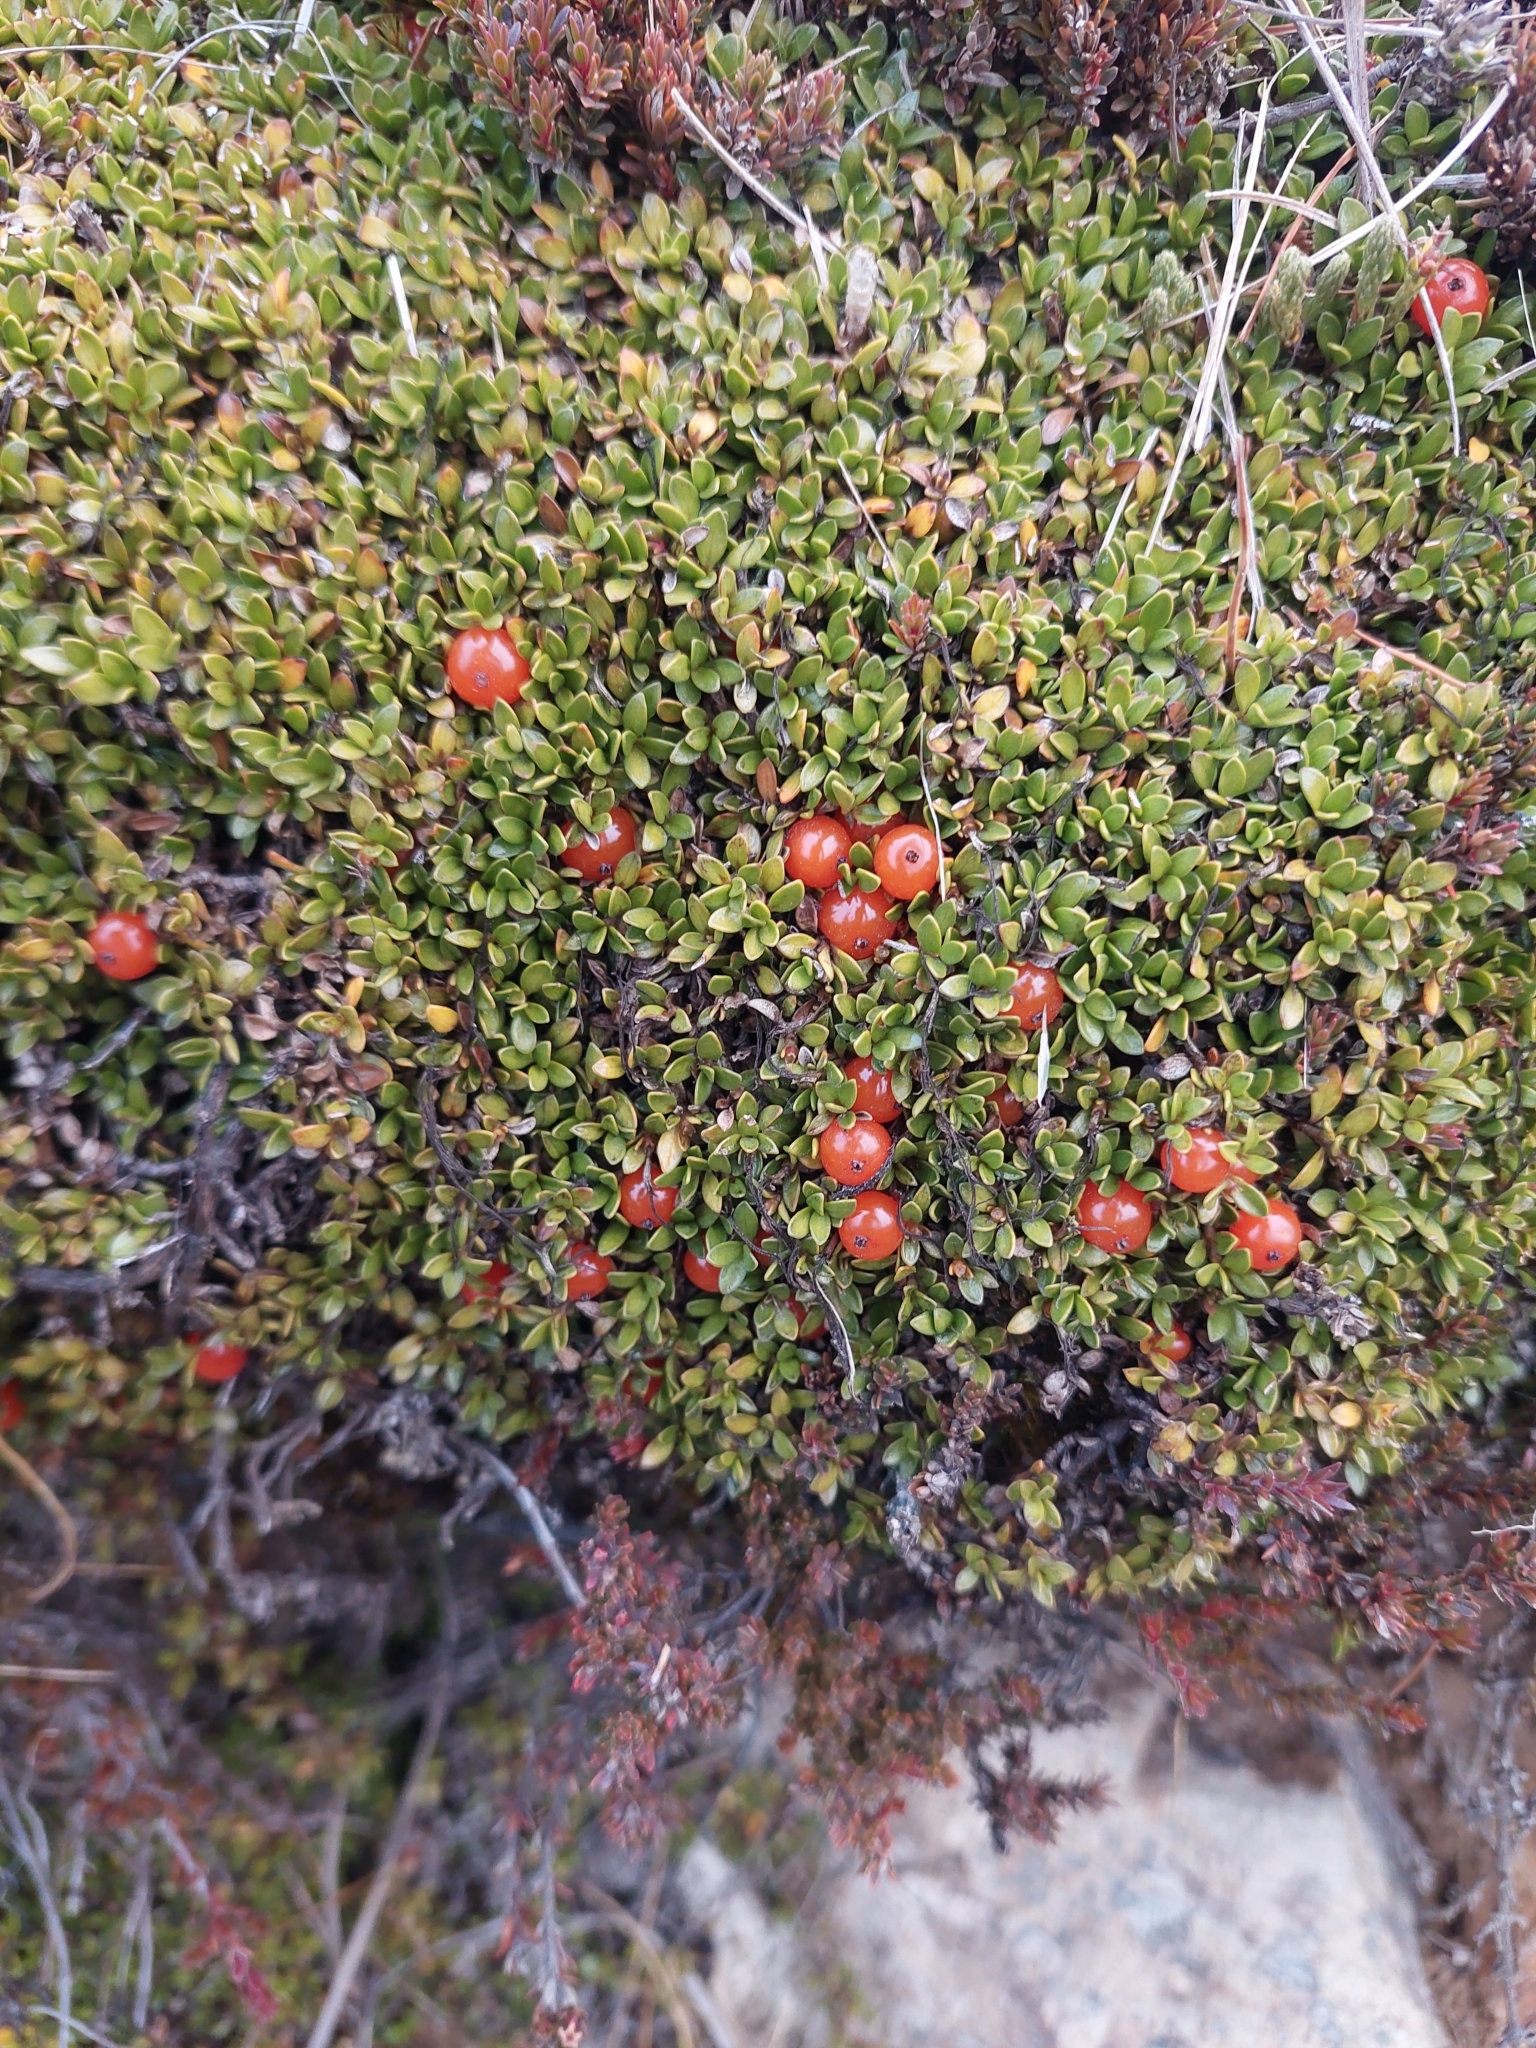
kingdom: Plantae
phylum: Tracheophyta
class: Magnoliopsida
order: Gentianales
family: Rubiaceae
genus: Coprosma
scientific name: Coprosma perpusilla
